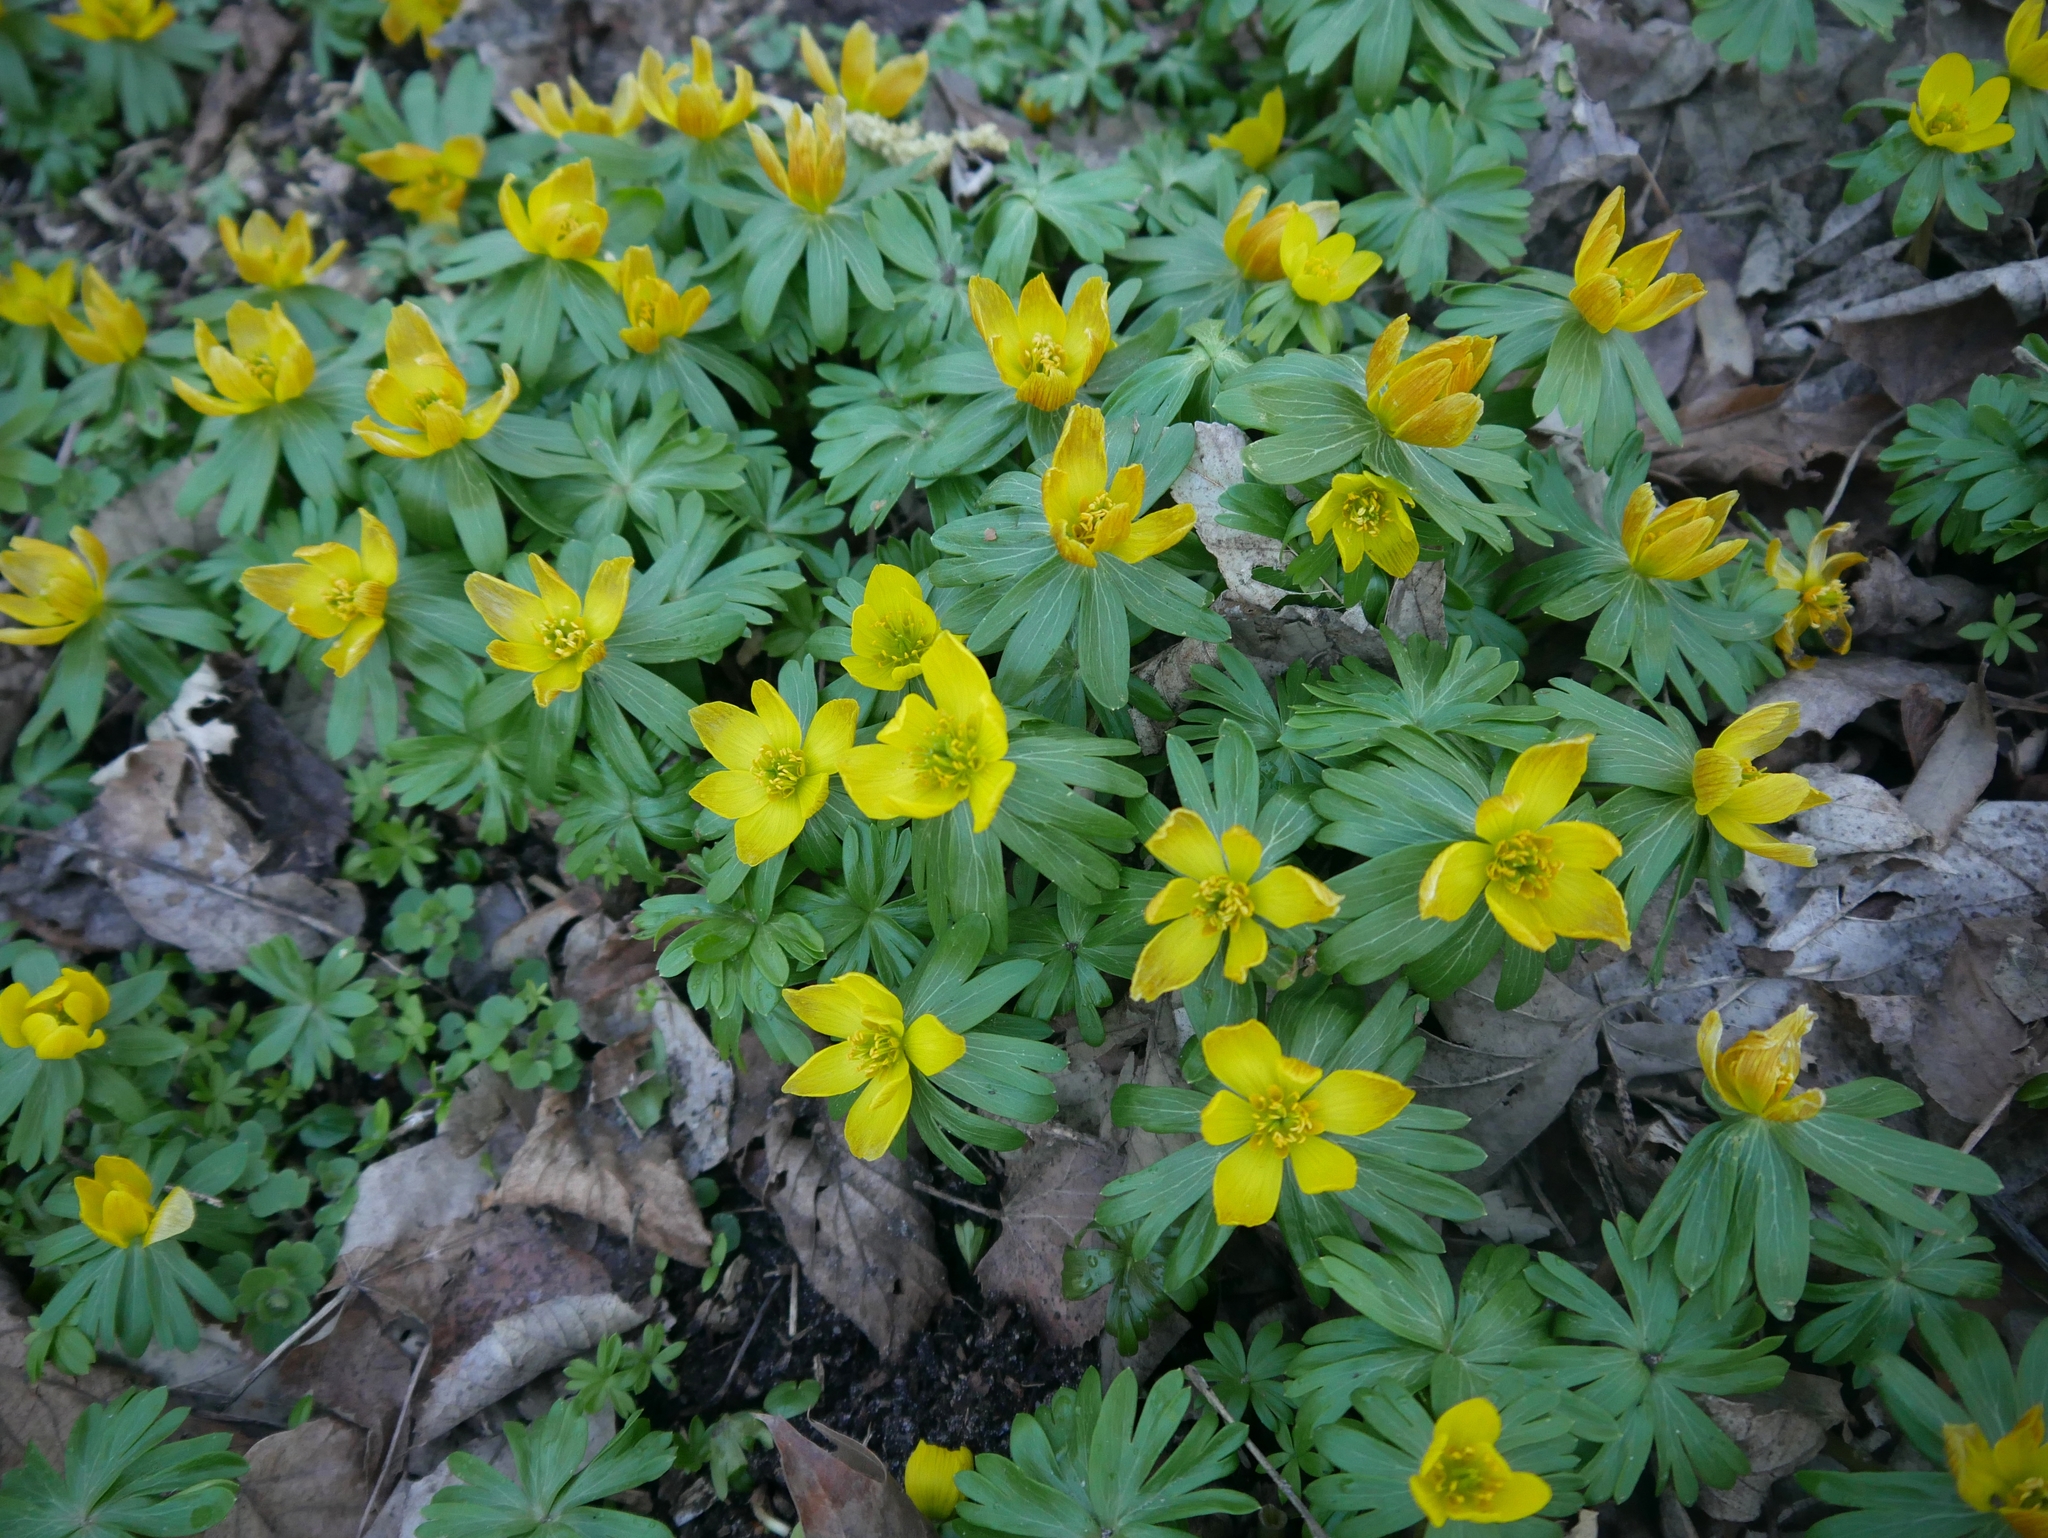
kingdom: Plantae
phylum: Tracheophyta
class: Magnoliopsida
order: Ranunculales
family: Ranunculaceae
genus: Eranthis
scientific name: Eranthis hyemalis
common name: Winter aconite
